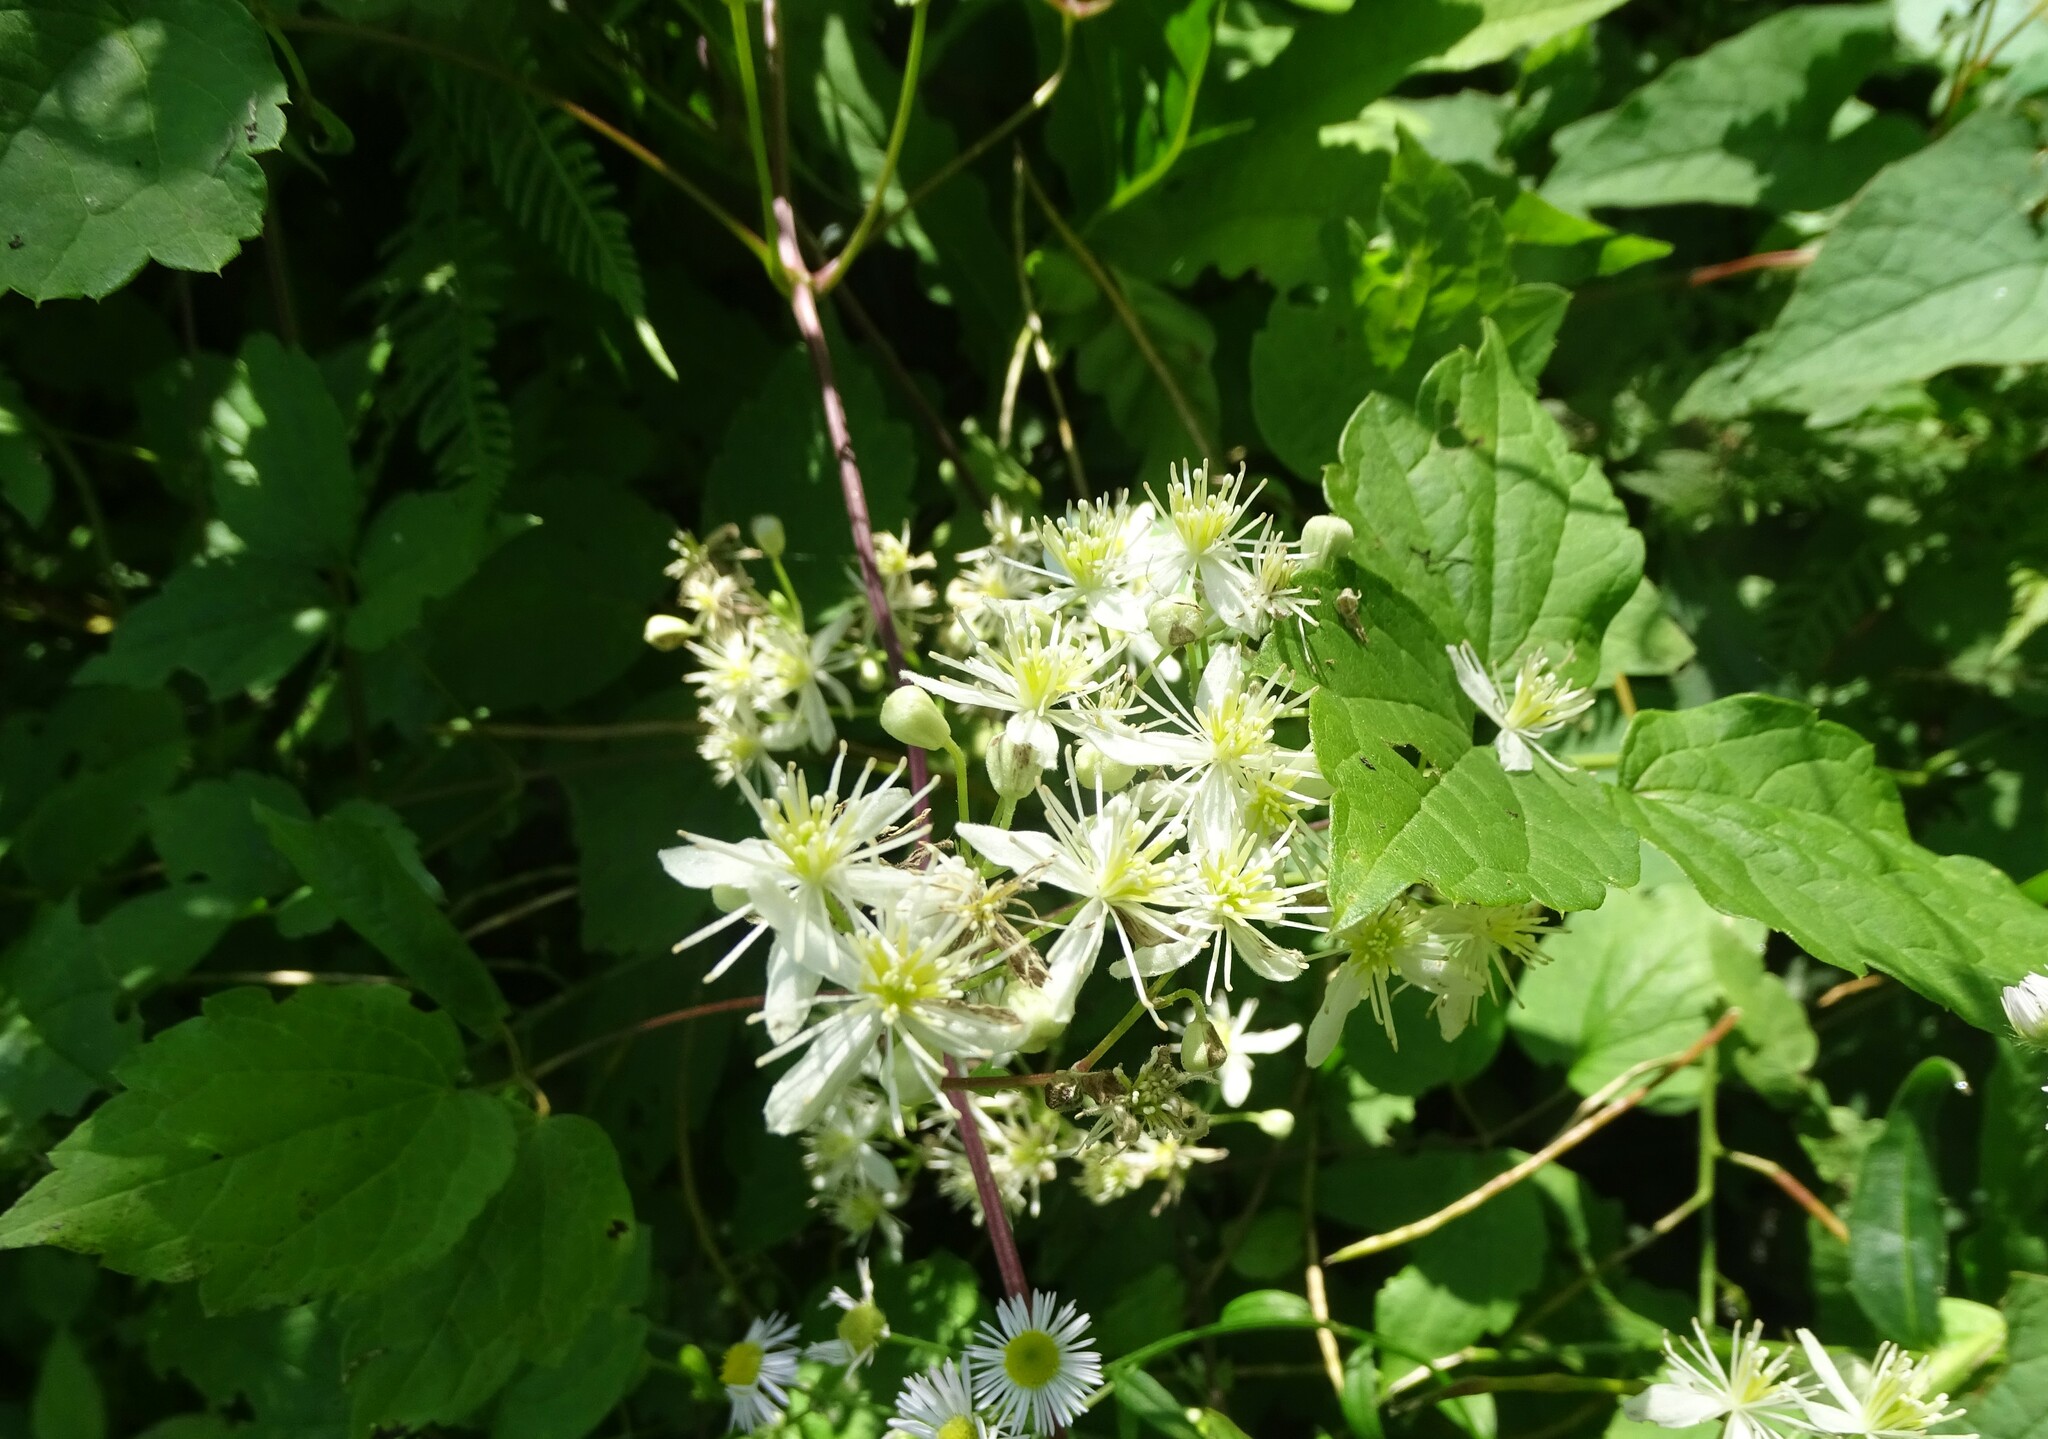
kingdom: Plantae
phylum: Tracheophyta
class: Magnoliopsida
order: Ranunculales
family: Ranunculaceae
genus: Clematis
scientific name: Clematis virginiana
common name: Virgin's-bower
